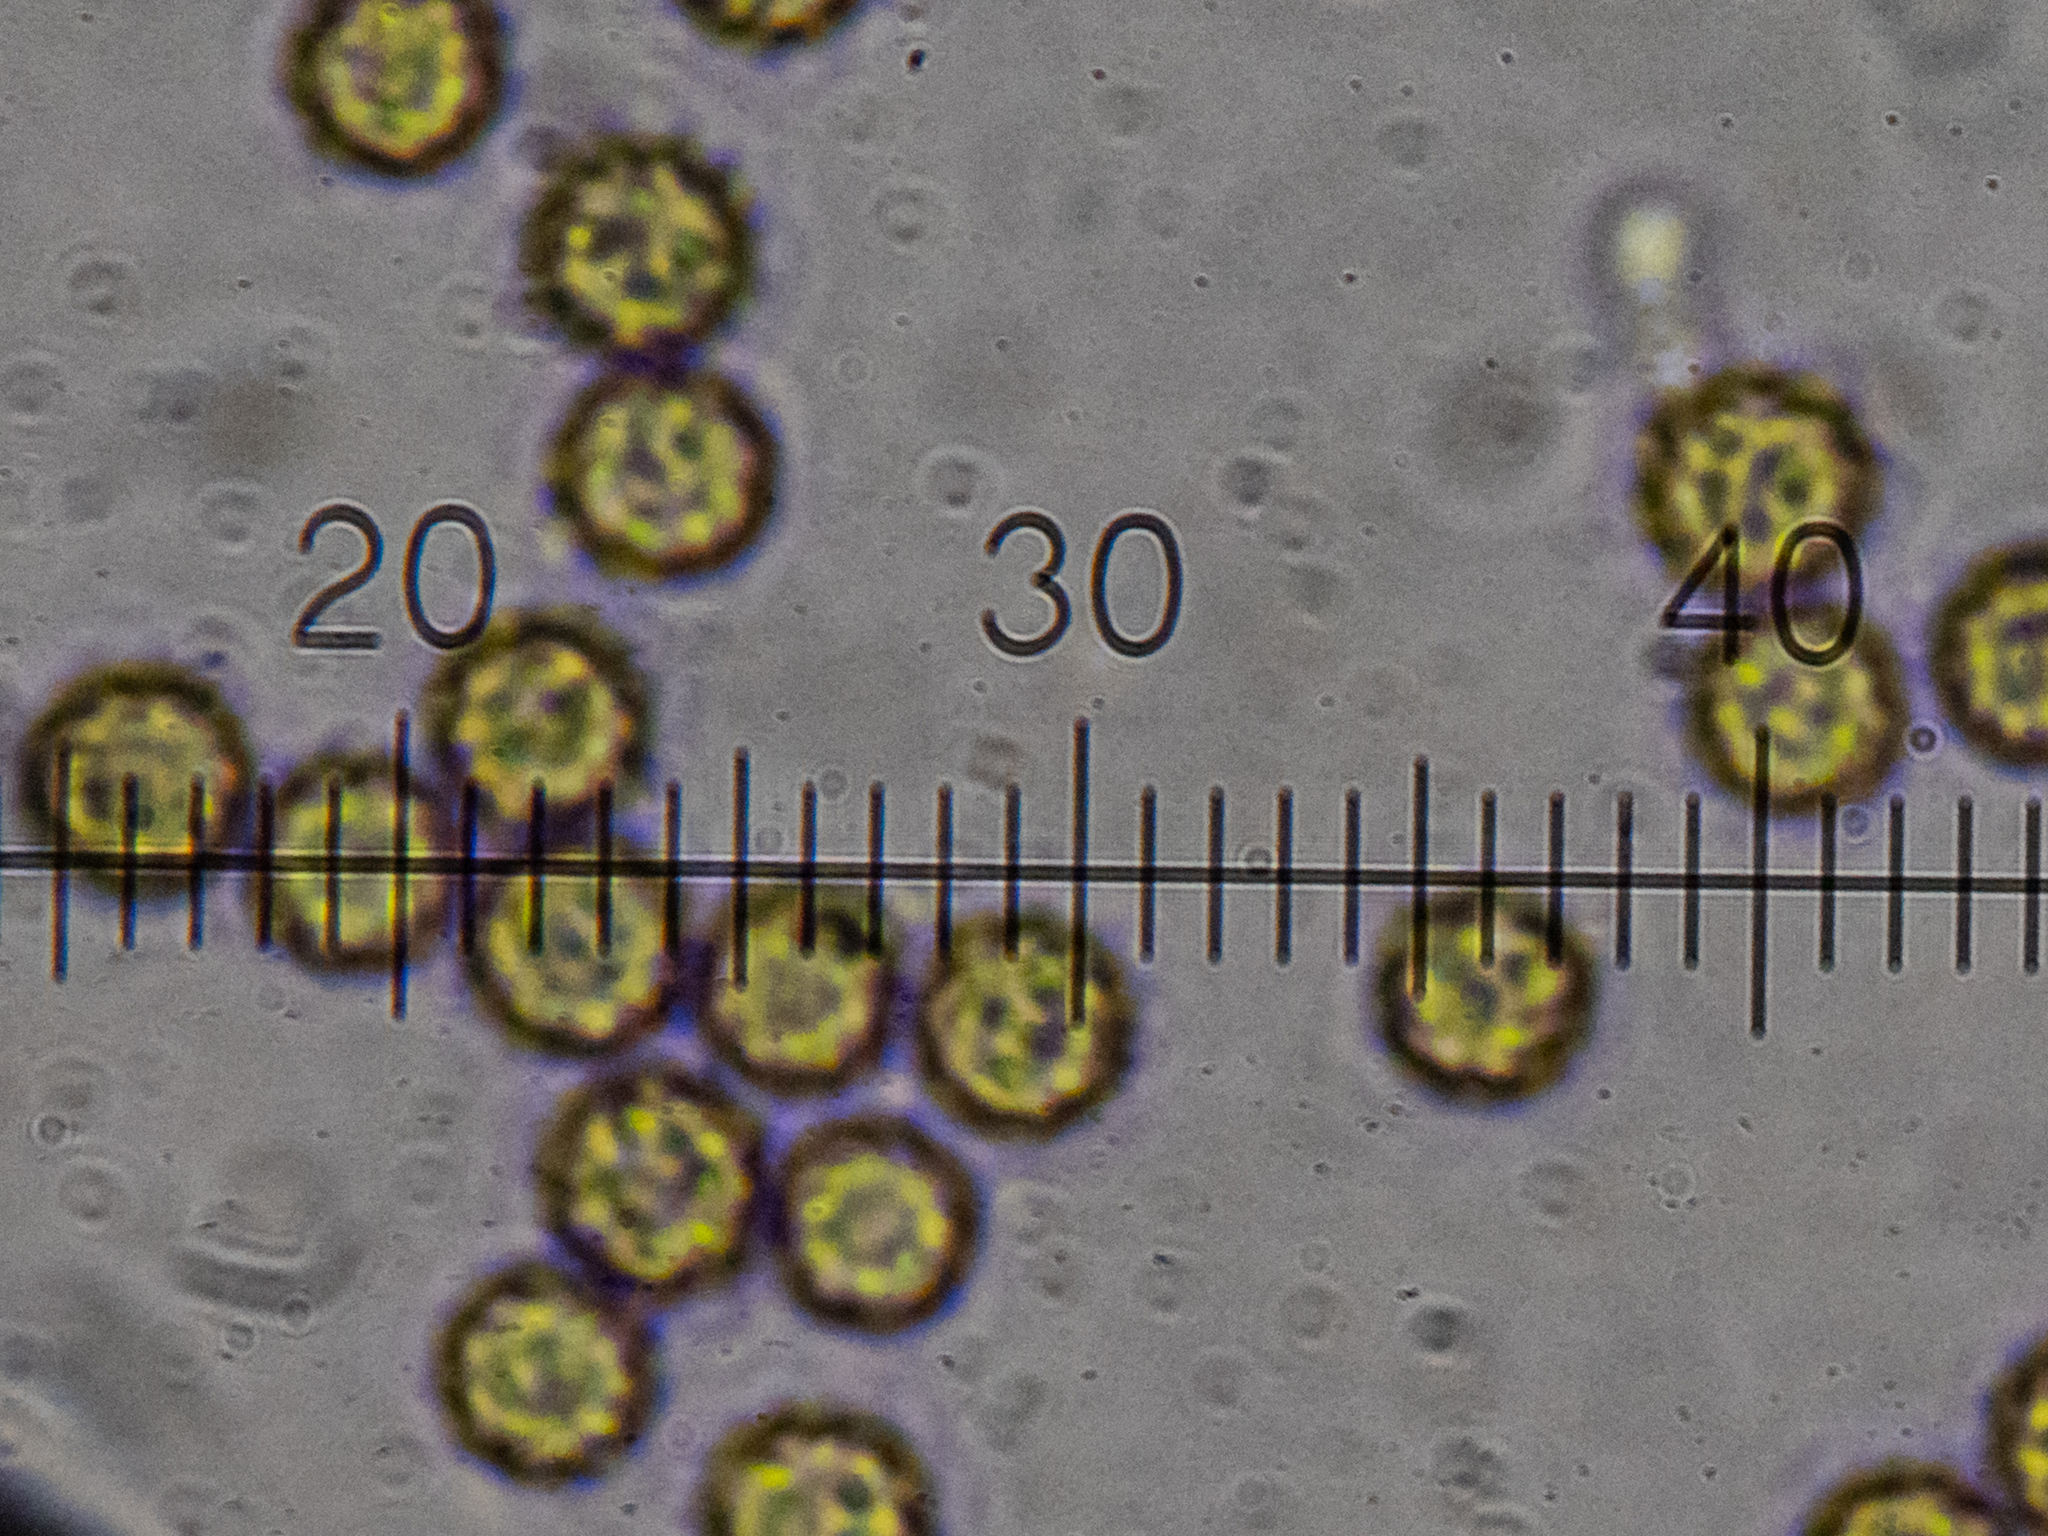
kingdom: Fungi
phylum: Basidiomycota
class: Agaricomycetes
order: Geastrales
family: Geastraceae
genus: Geastrum
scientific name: Geastrum fimbriatum
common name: Sessile earthstar
